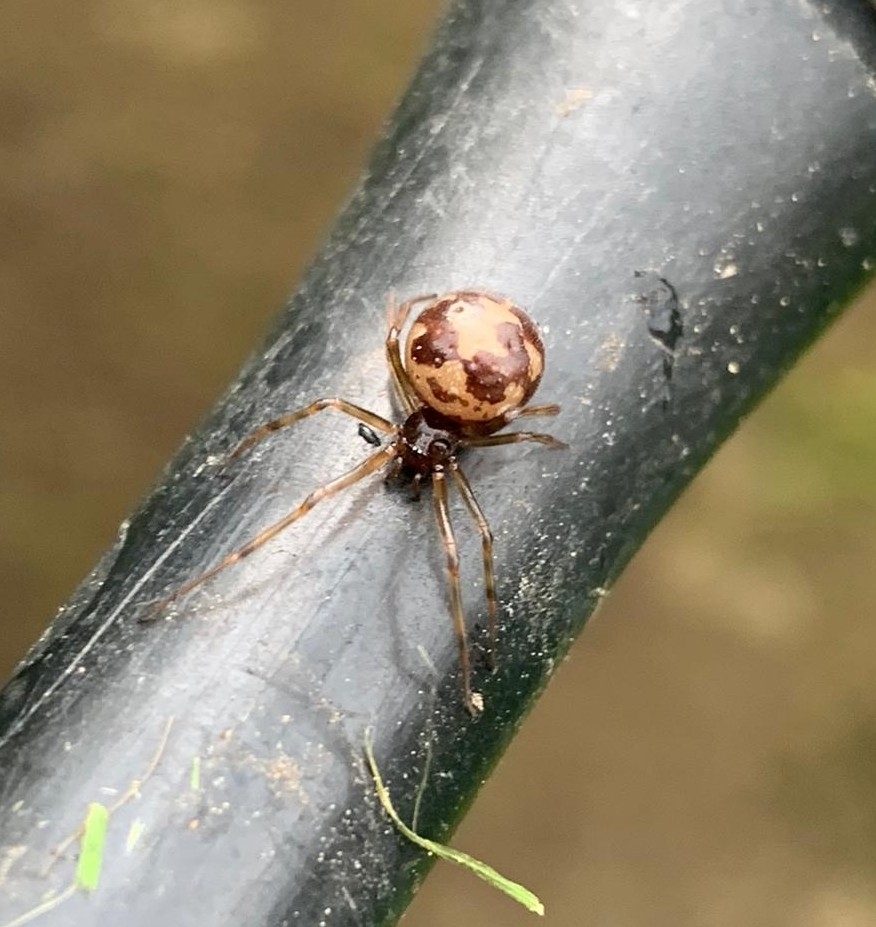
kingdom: Animalia
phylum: Arthropoda
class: Arachnida
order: Araneae
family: Theridiidae
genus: Steatoda
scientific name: Steatoda triangulosa
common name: Triangulate bud spider
